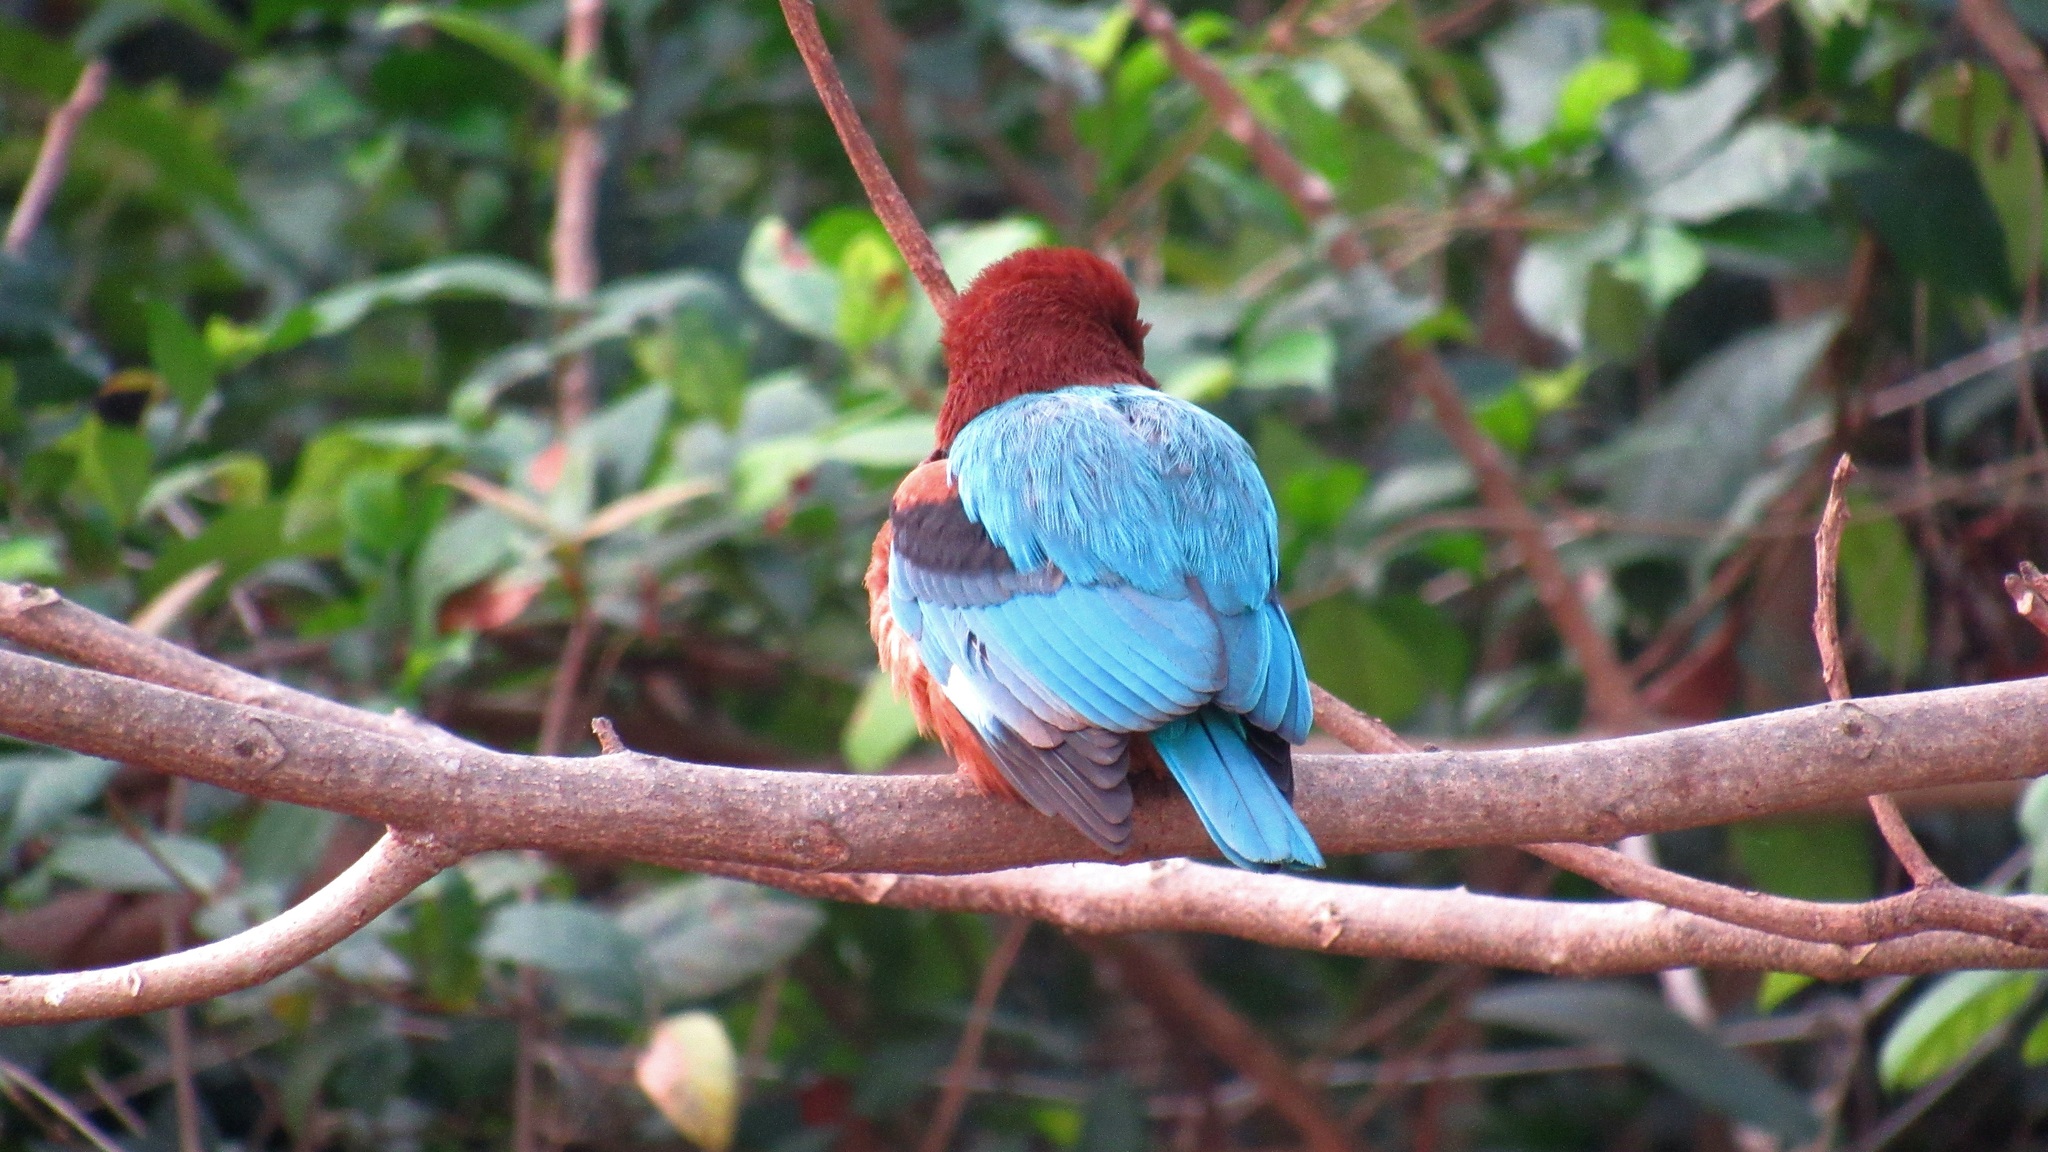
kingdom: Animalia
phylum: Chordata
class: Aves
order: Coraciiformes
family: Alcedinidae
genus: Halcyon
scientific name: Halcyon smyrnensis
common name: White-throated kingfisher
